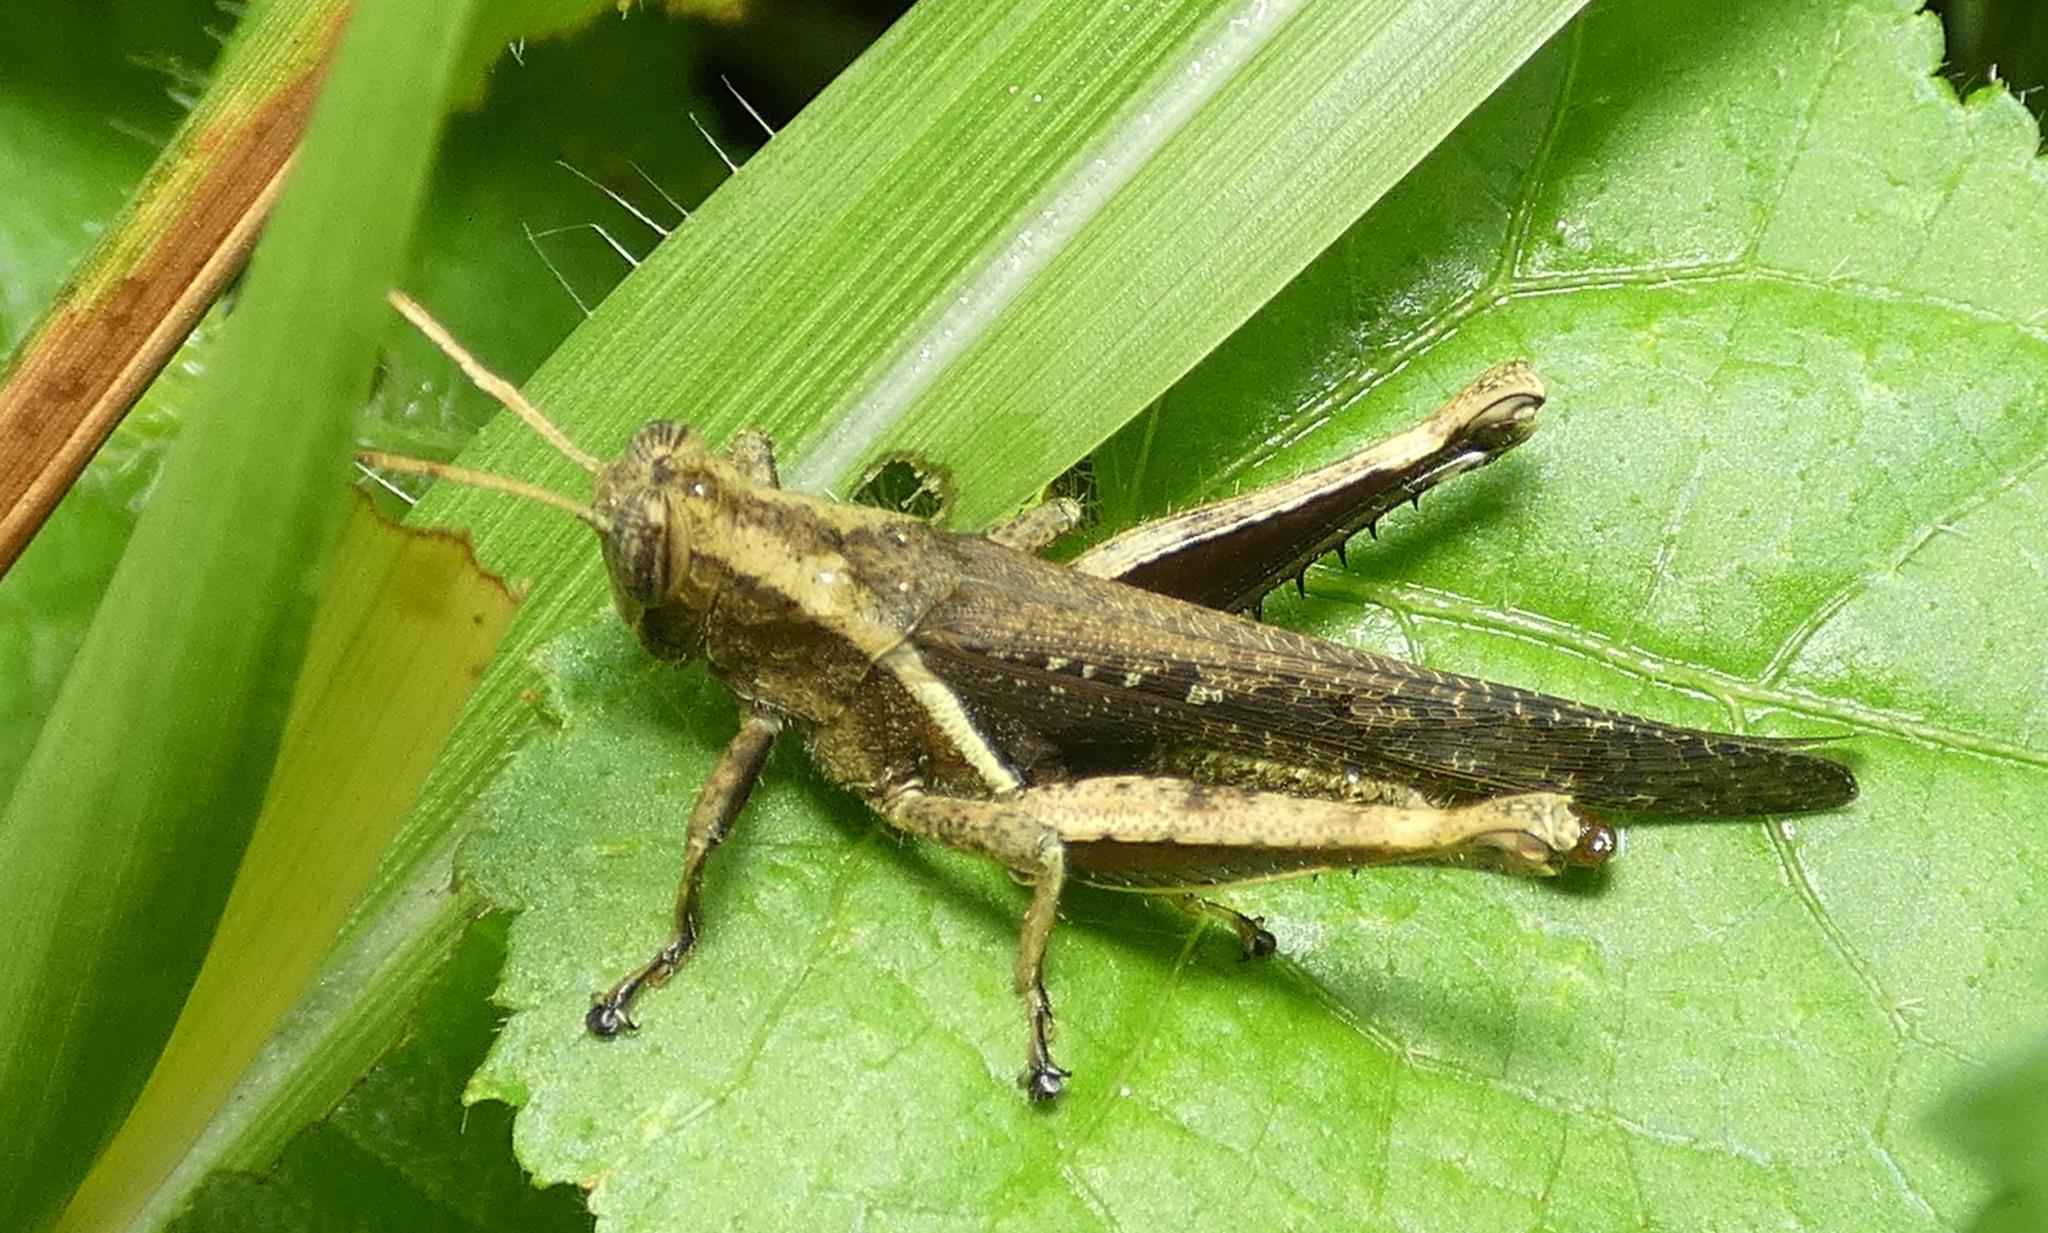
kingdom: Animalia
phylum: Arthropoda
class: Insecta
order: Orthoptera
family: Acrididae
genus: Abracris
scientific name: Abracris flavolineata
